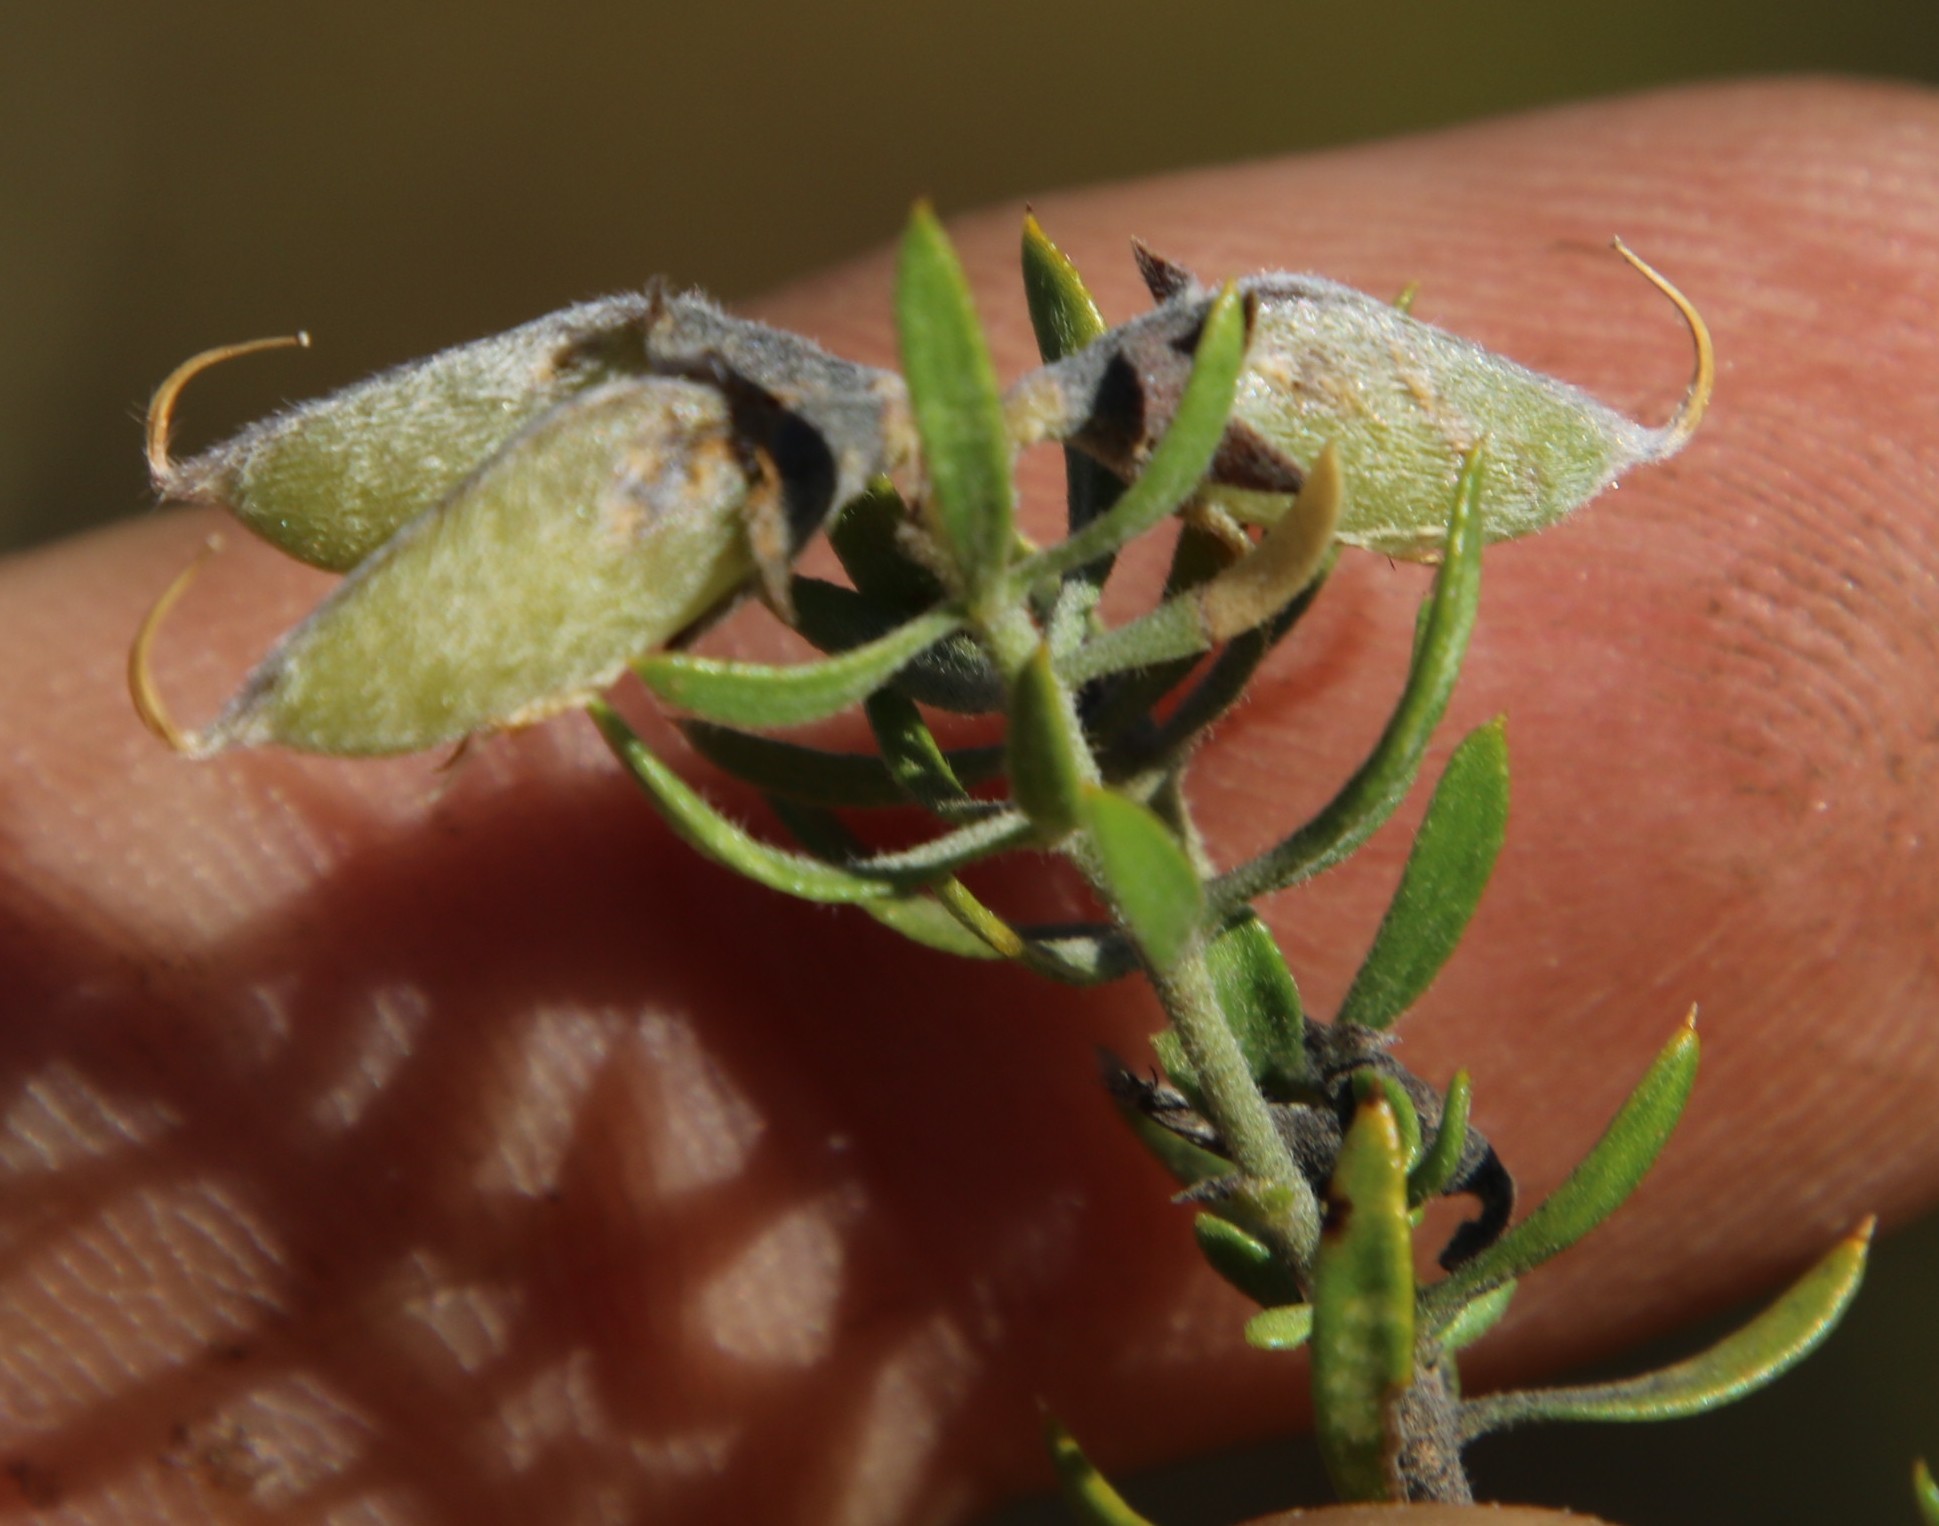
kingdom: Plantae
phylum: Tracheophyta
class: Magnoliopsida
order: Fabales
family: Fabaceae
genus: Aspalathus
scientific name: Aspalathus rugosa
